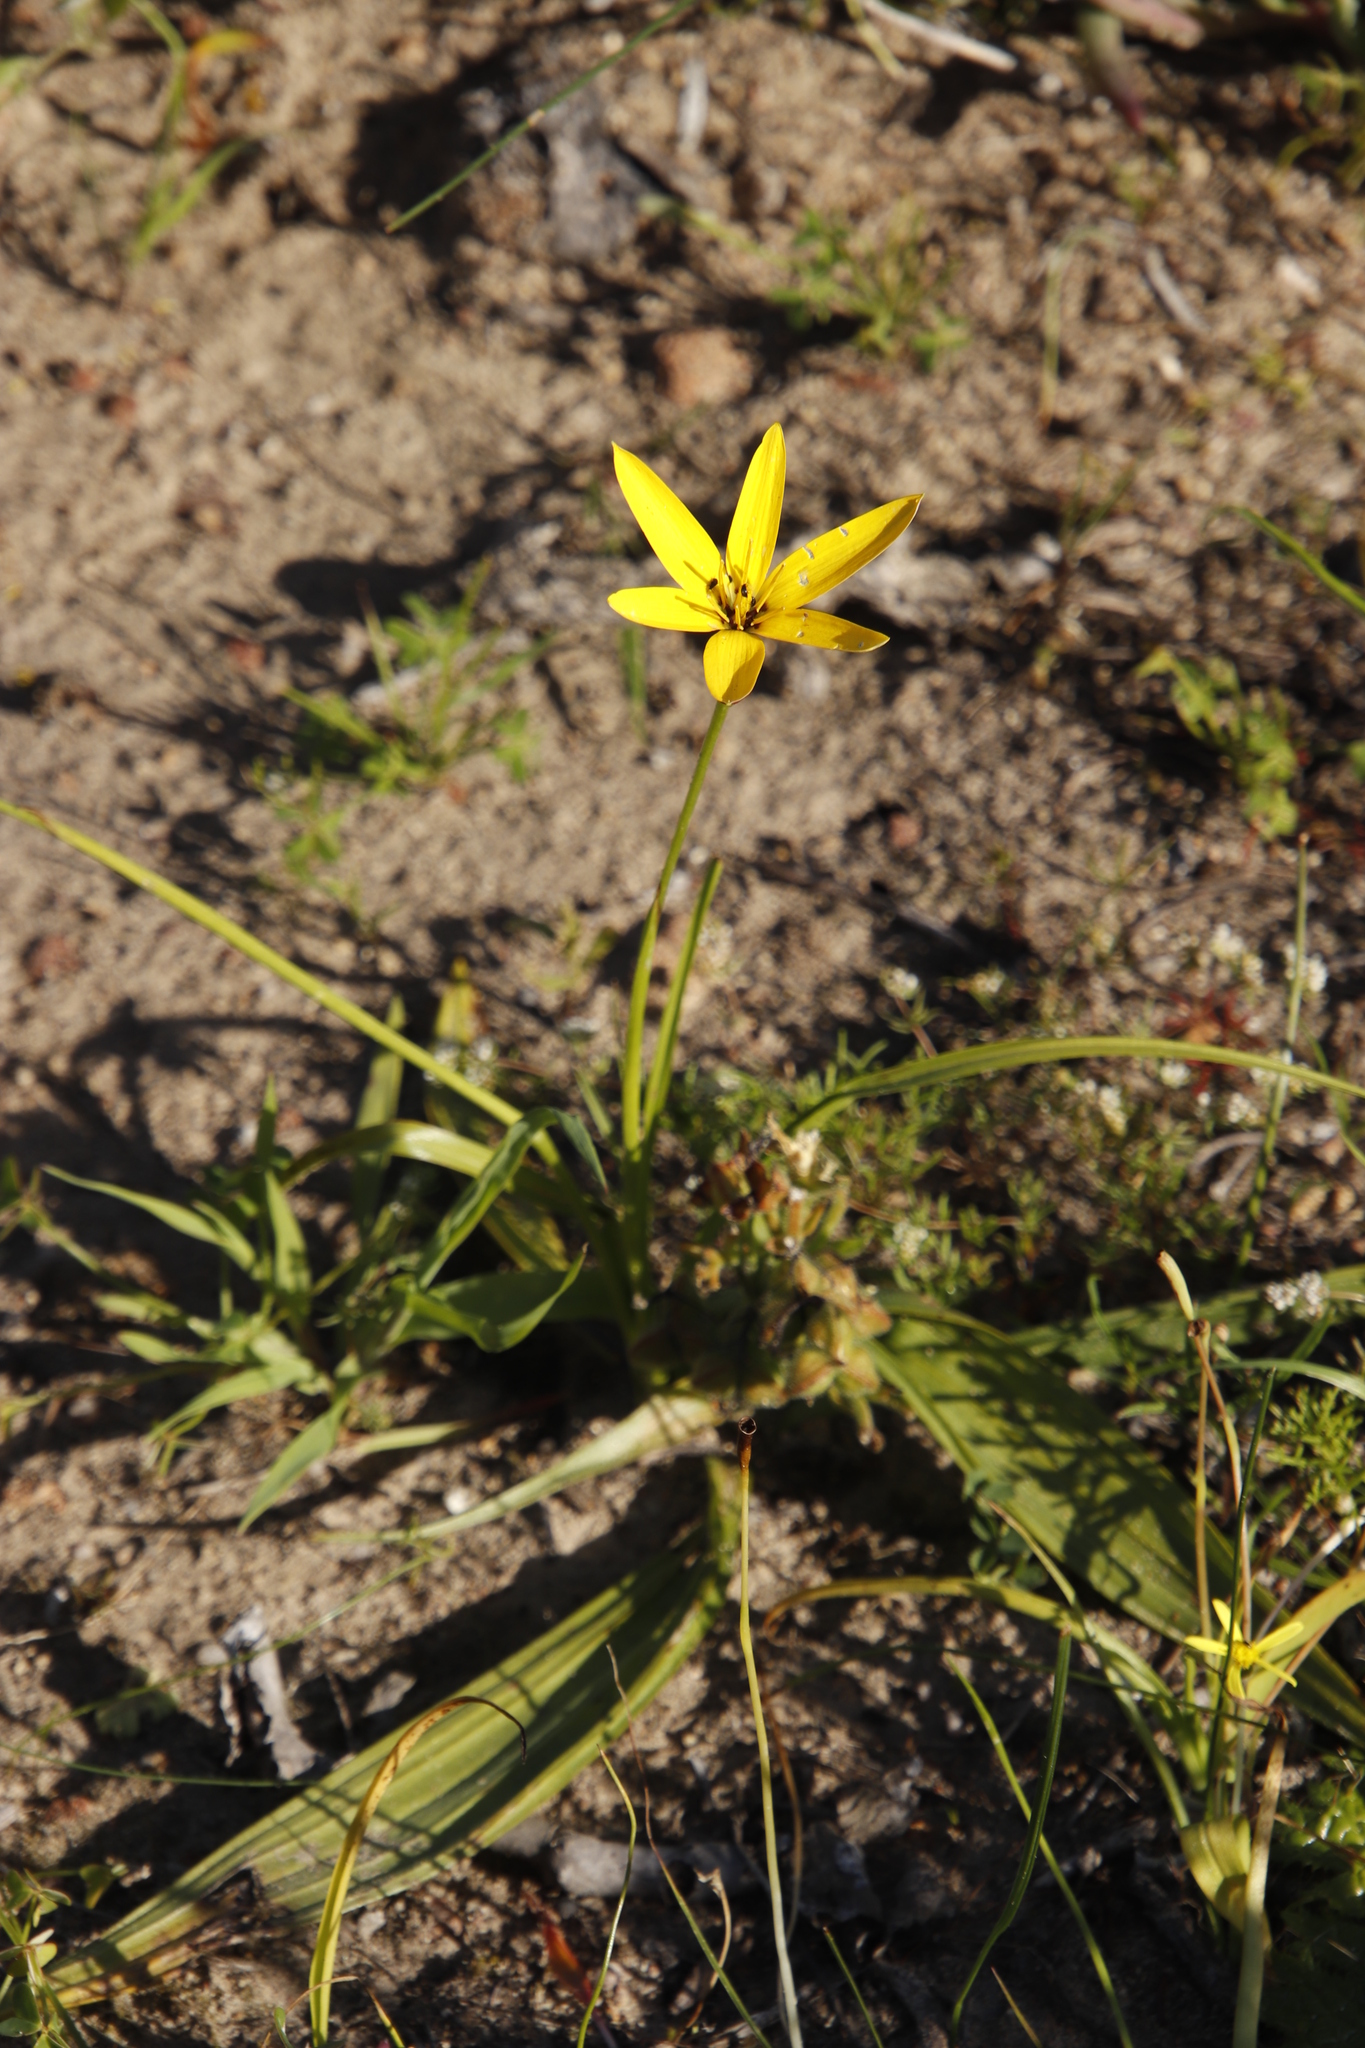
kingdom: Plantae
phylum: Tracheophyta
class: Liliopsida
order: Asparagales
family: Hypoxidaceae
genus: Pauridia
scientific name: Pauridia capensis
